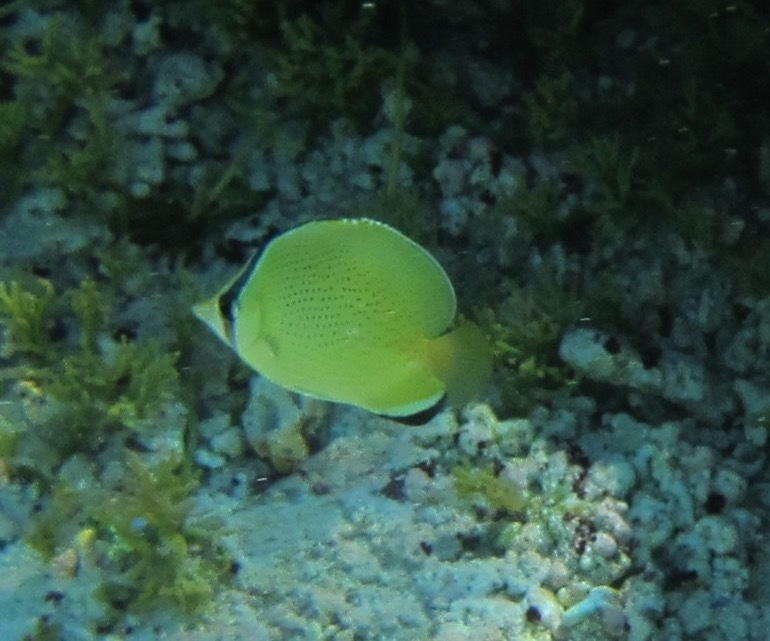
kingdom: Animalia
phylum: Chordata
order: Perciformes
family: Chaetodontidae
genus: Chaetodon
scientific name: Chaetodon citrinellus
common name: Speckled butterflyfish
